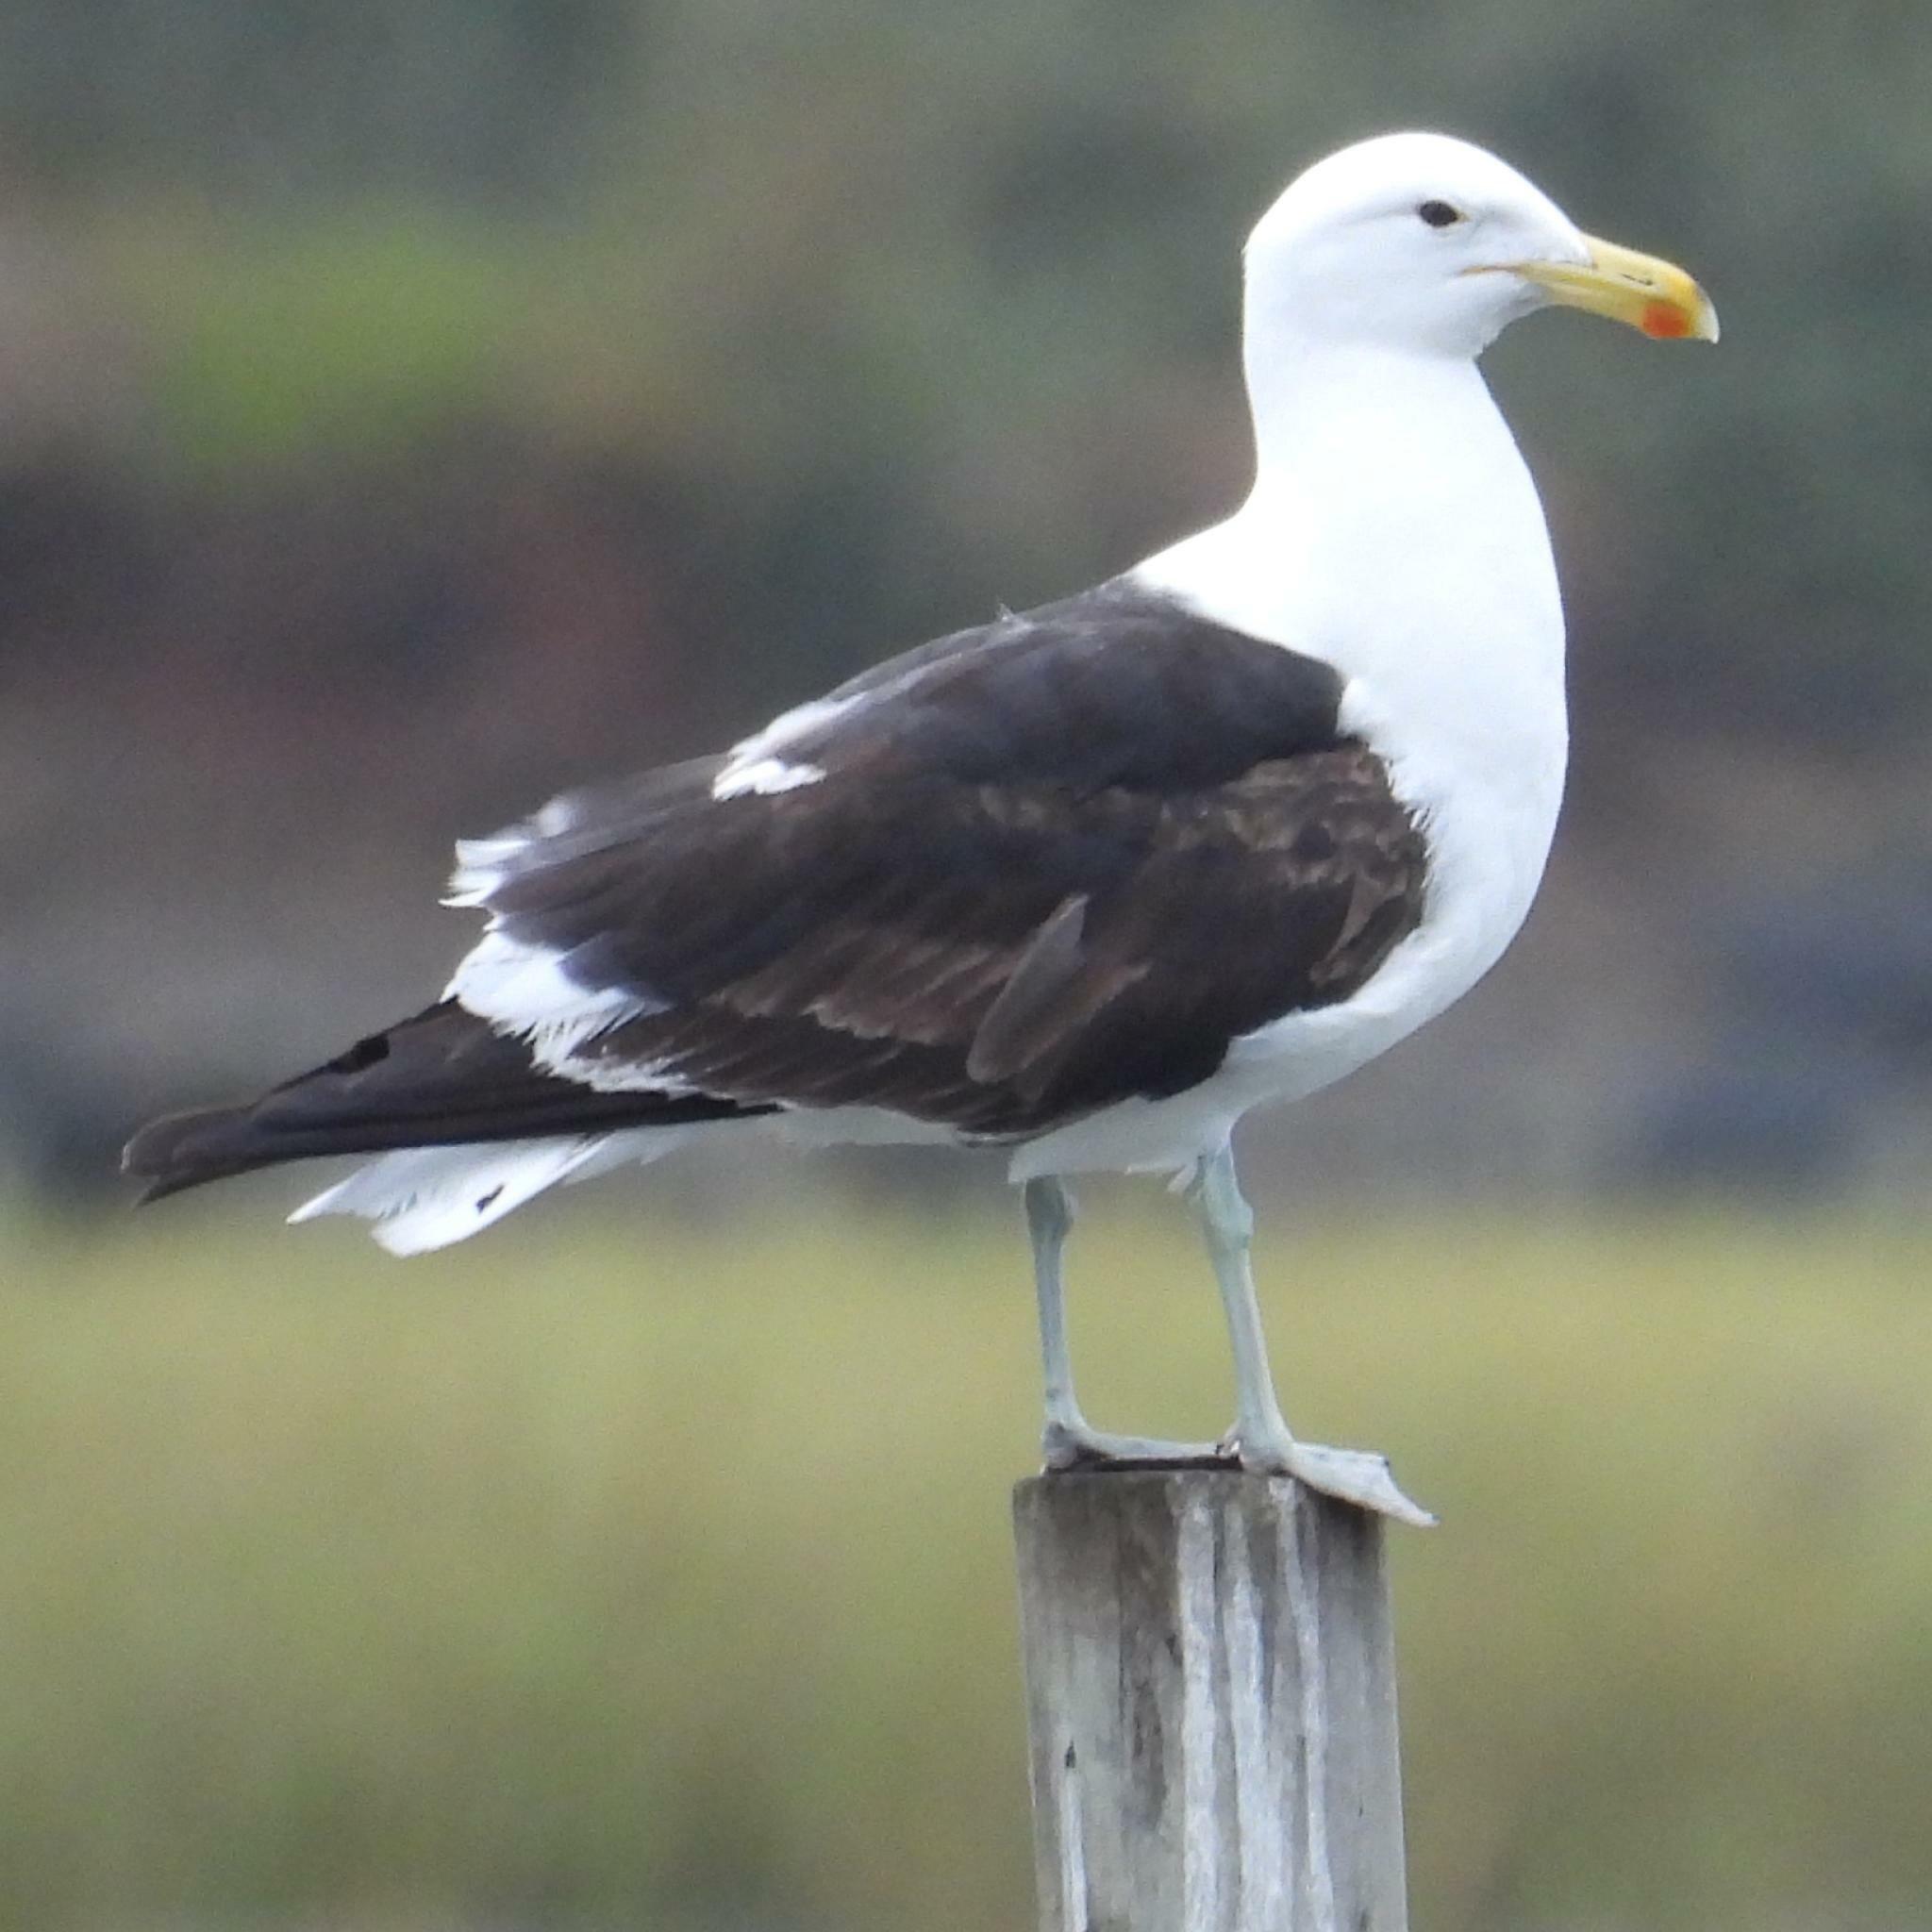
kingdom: Animalia
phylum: Chordata
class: Aves
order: Charadriiformes
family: Laridae
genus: Larus
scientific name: Larus dominicanus
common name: Kelp gull
